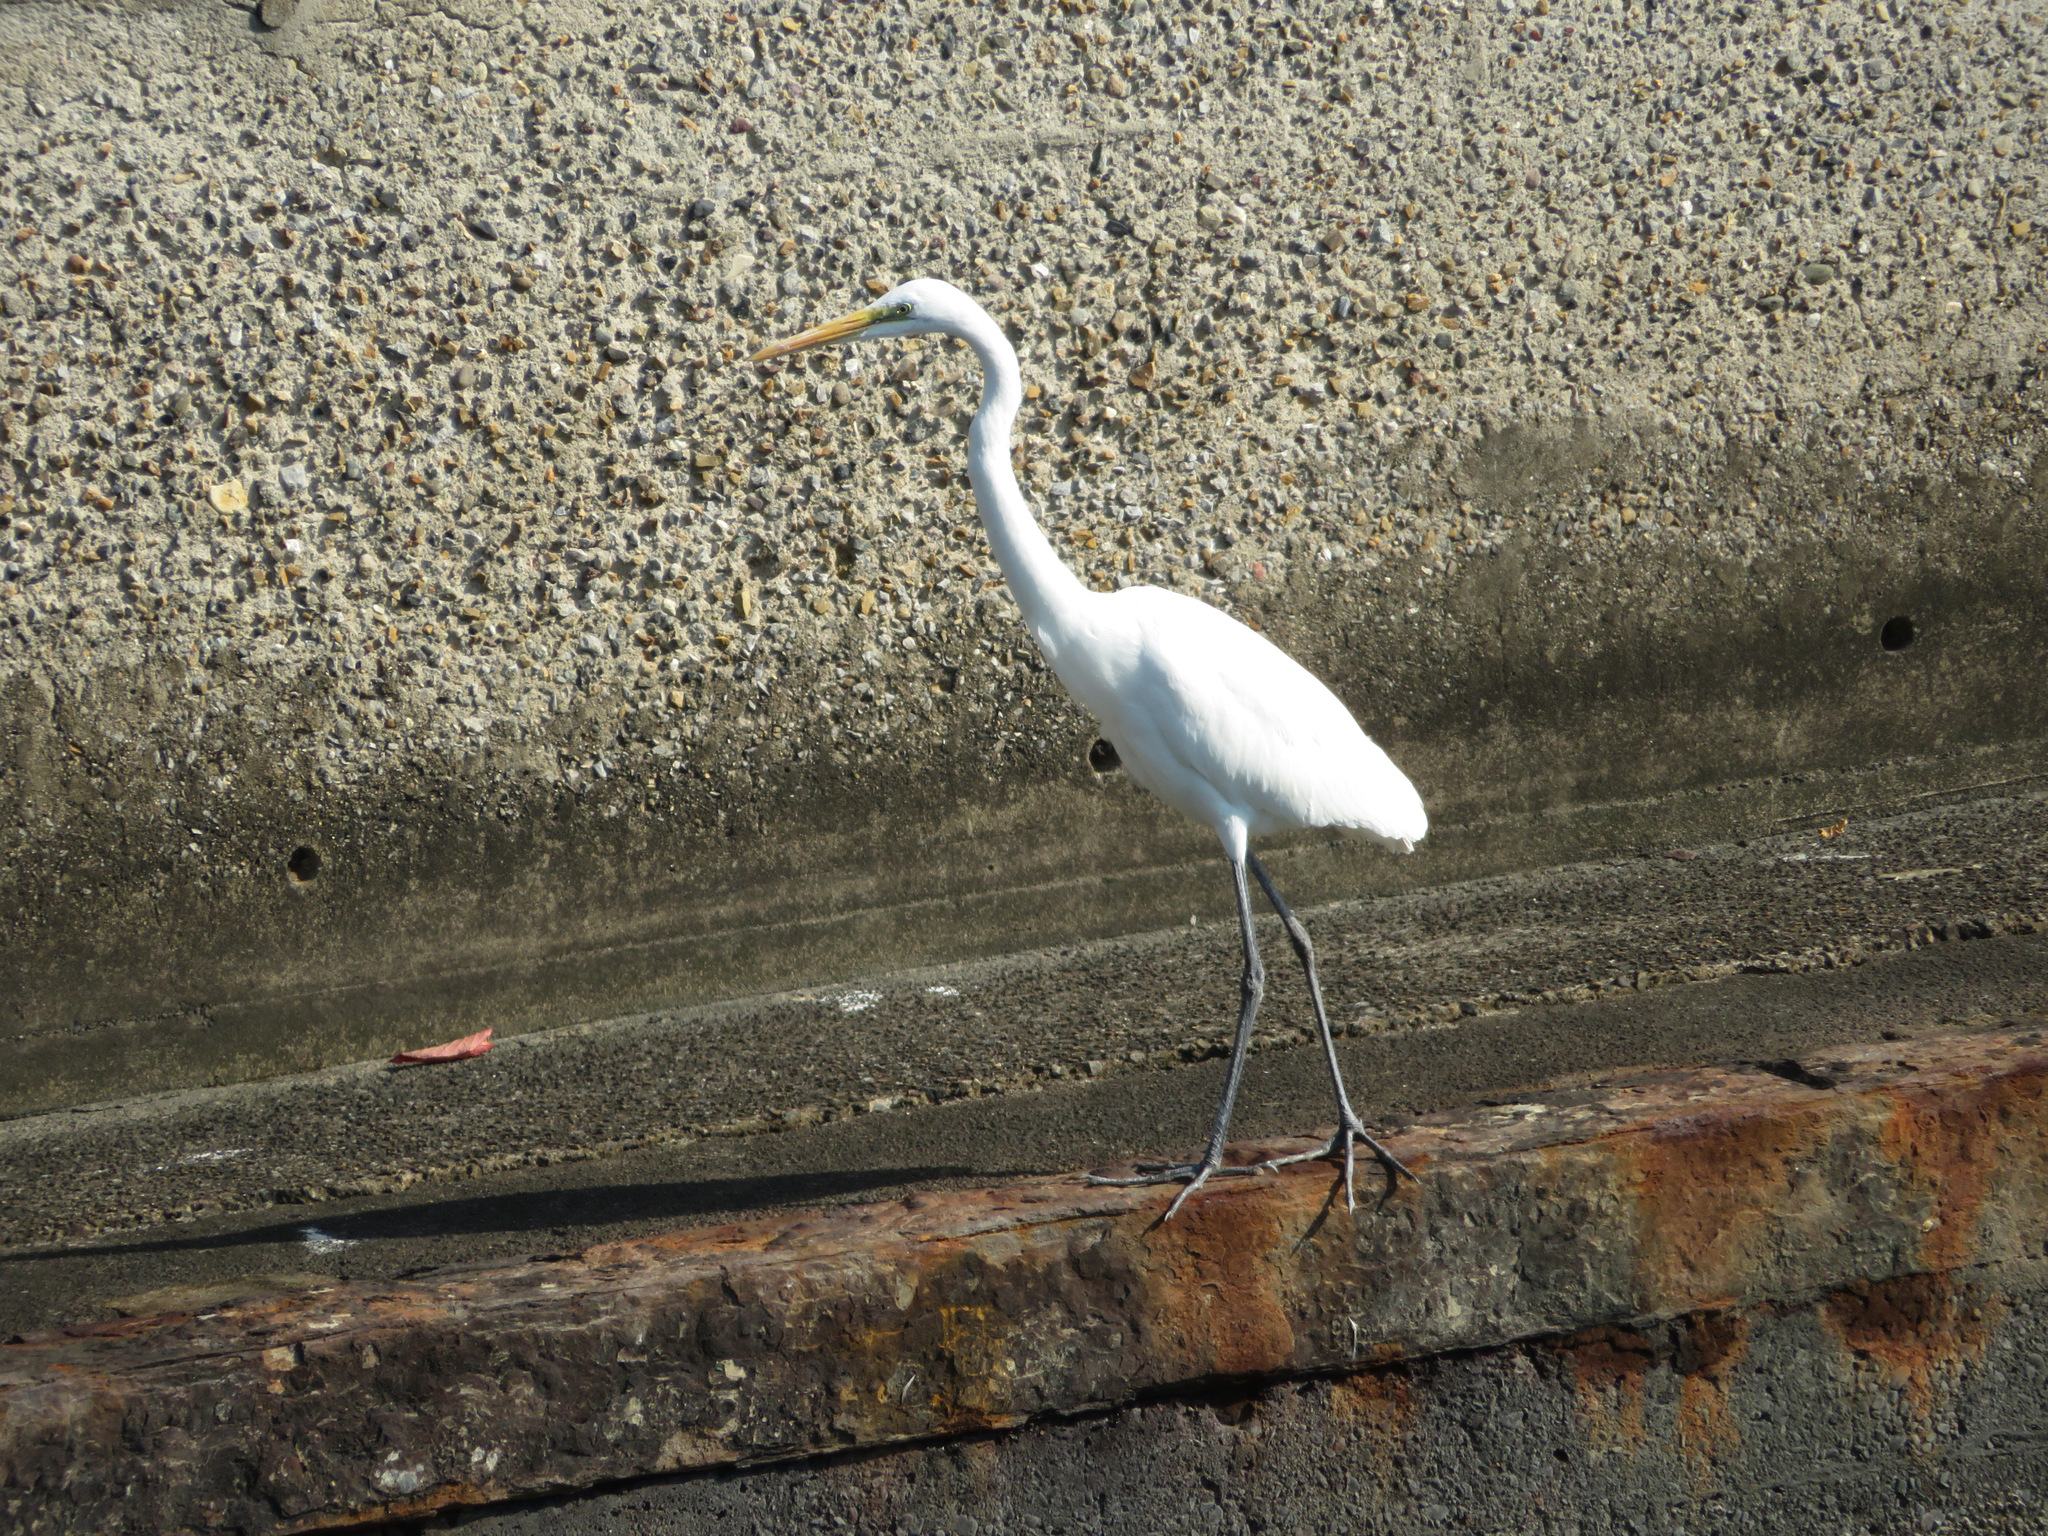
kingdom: Animalia
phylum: Chordata
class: Aves
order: Pelecaniformes
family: Ardeidae
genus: Ardea
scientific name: Ardea alba
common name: Great egret
